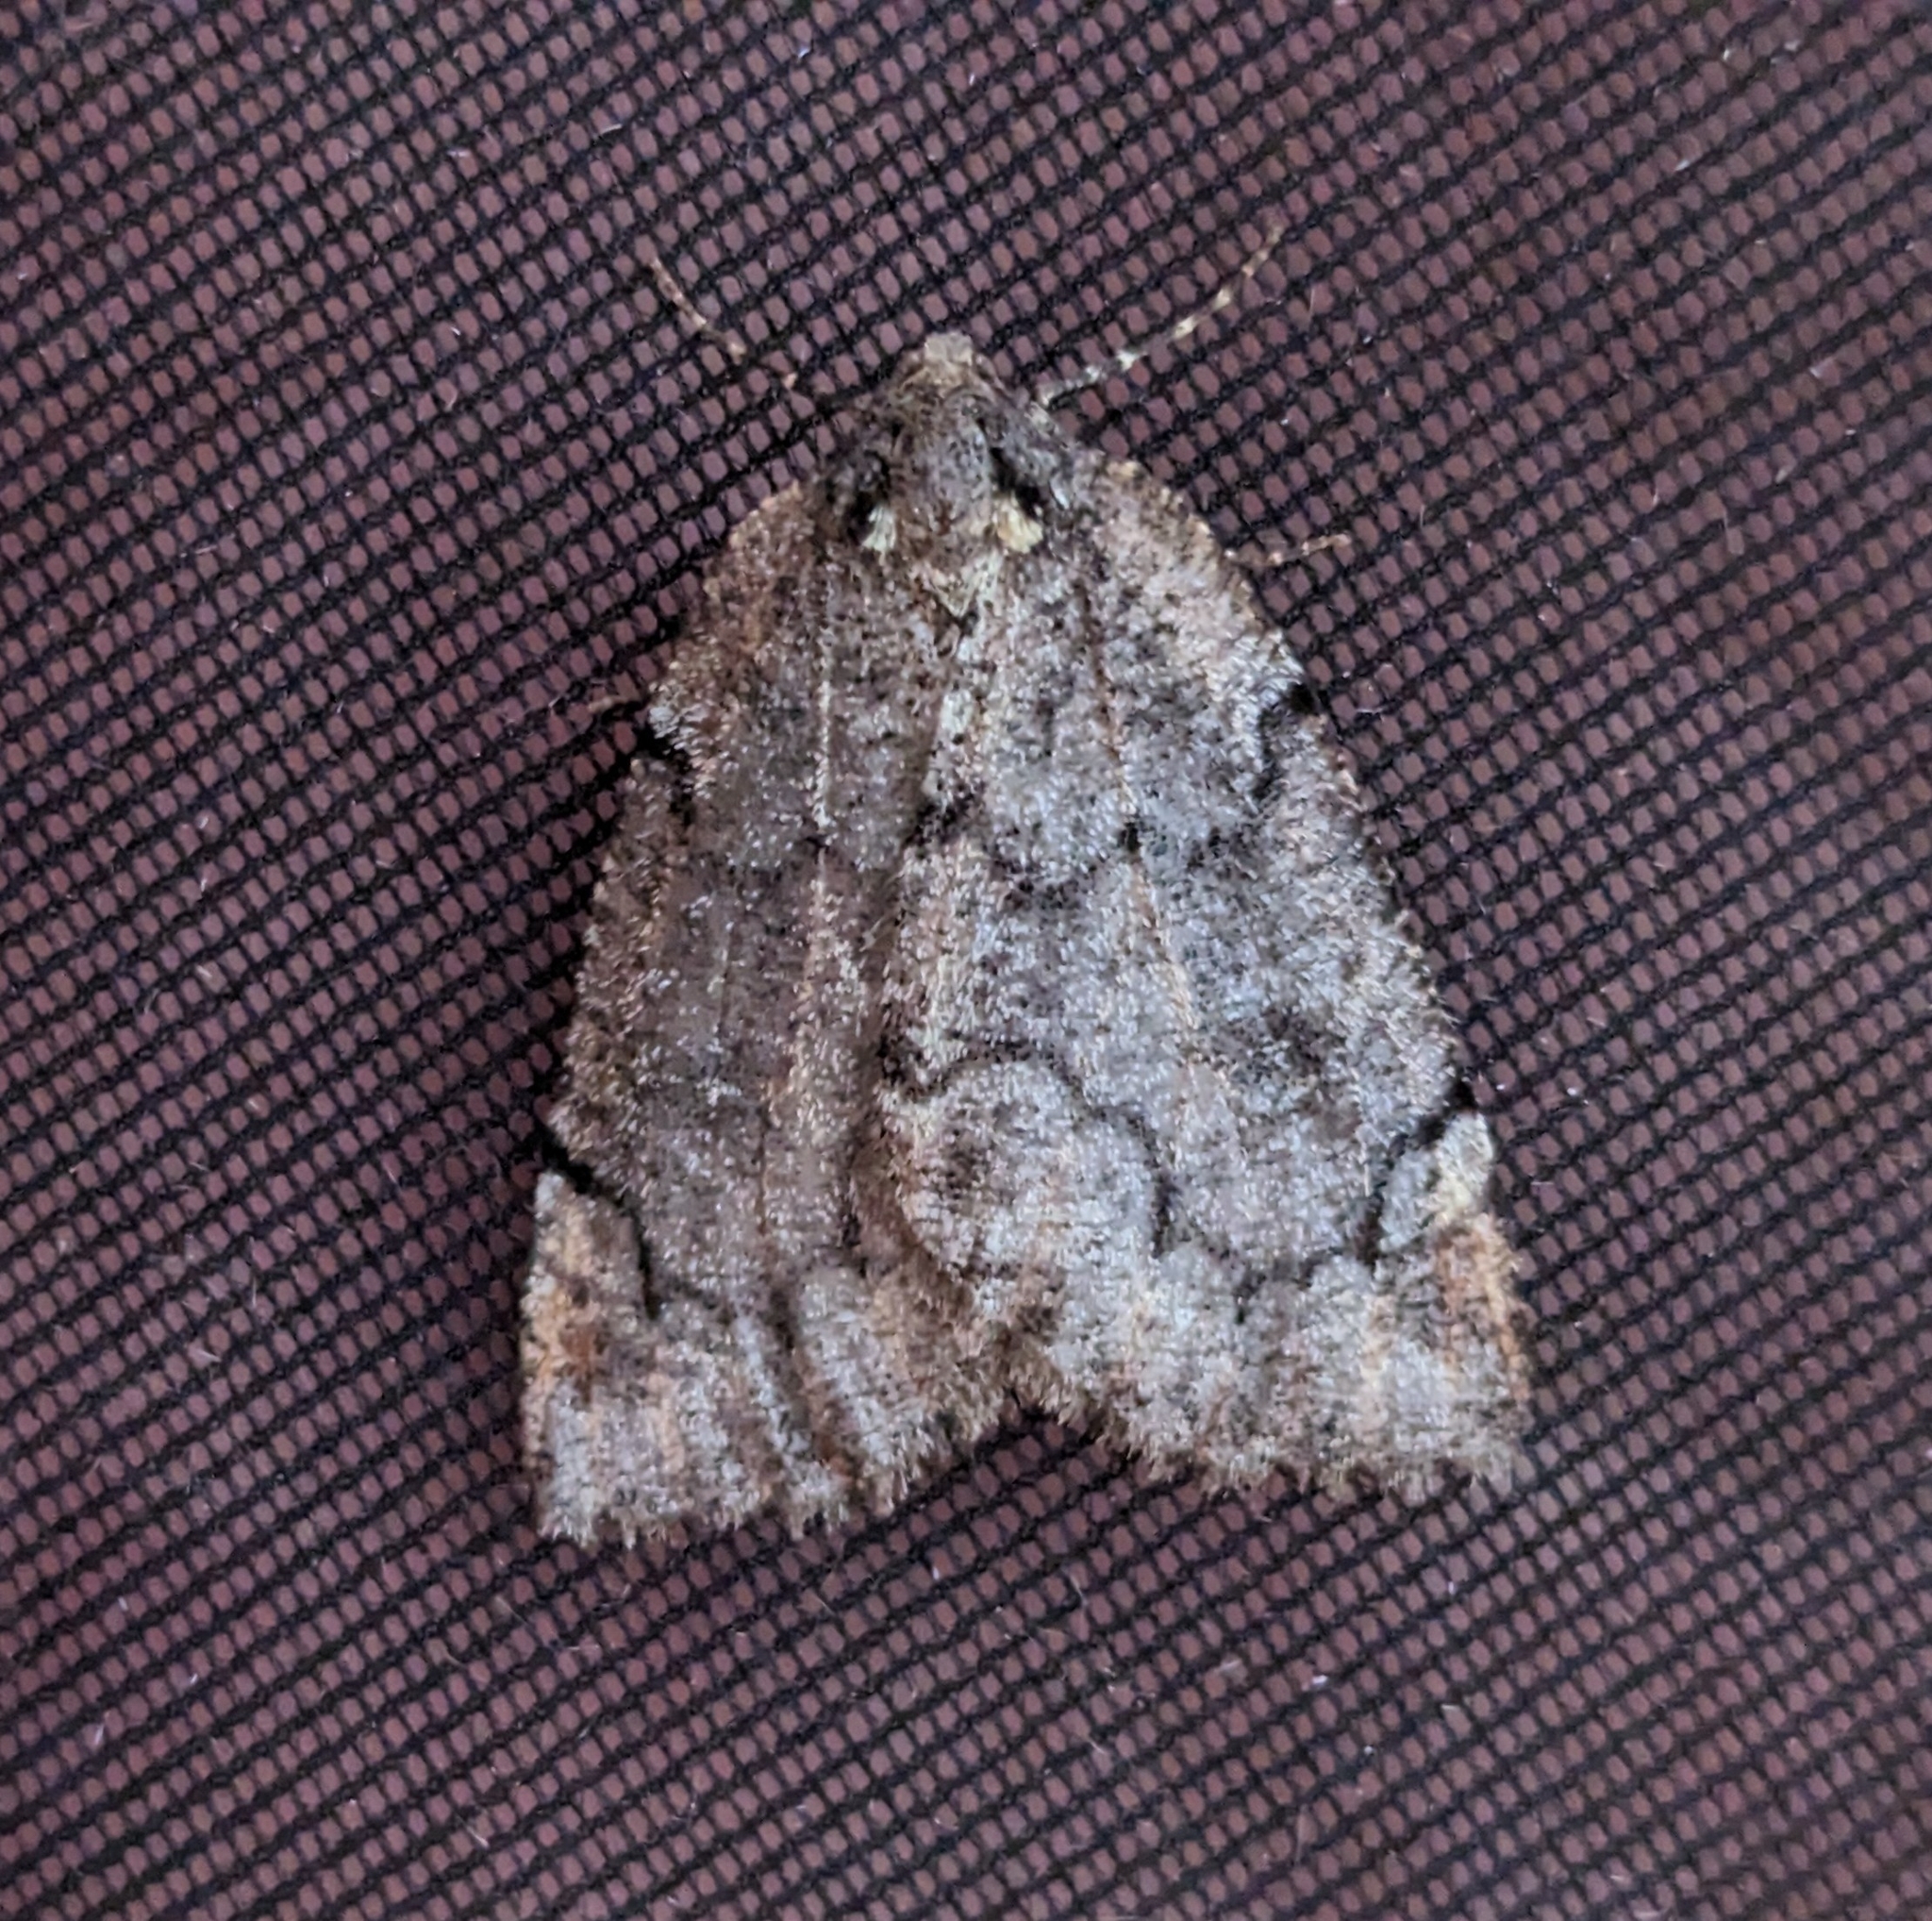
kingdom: Animalia
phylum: Arthropoda
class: Insecta
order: Lepidoptera
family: Geometridae
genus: Spodolepis
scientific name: Spodolepis danbyi
